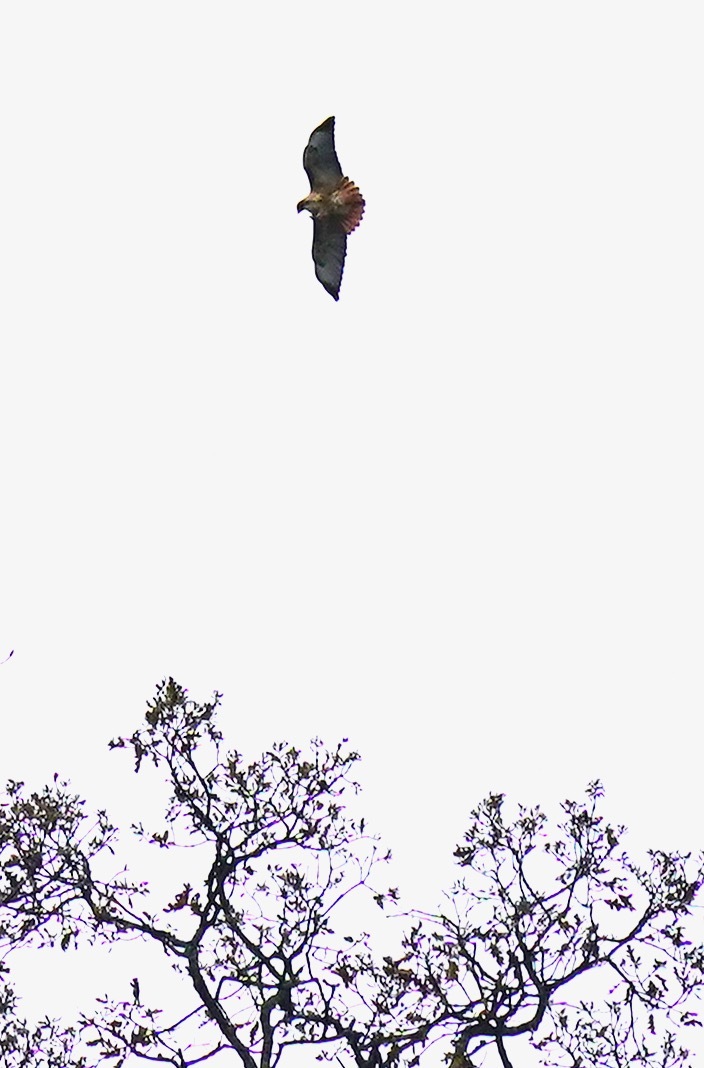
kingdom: Animalia
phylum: Chordata
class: Aves
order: Accipitriformes
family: Accipitridae
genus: Buteo
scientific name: Buteo jamaicensis
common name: Red-tailed hawk
